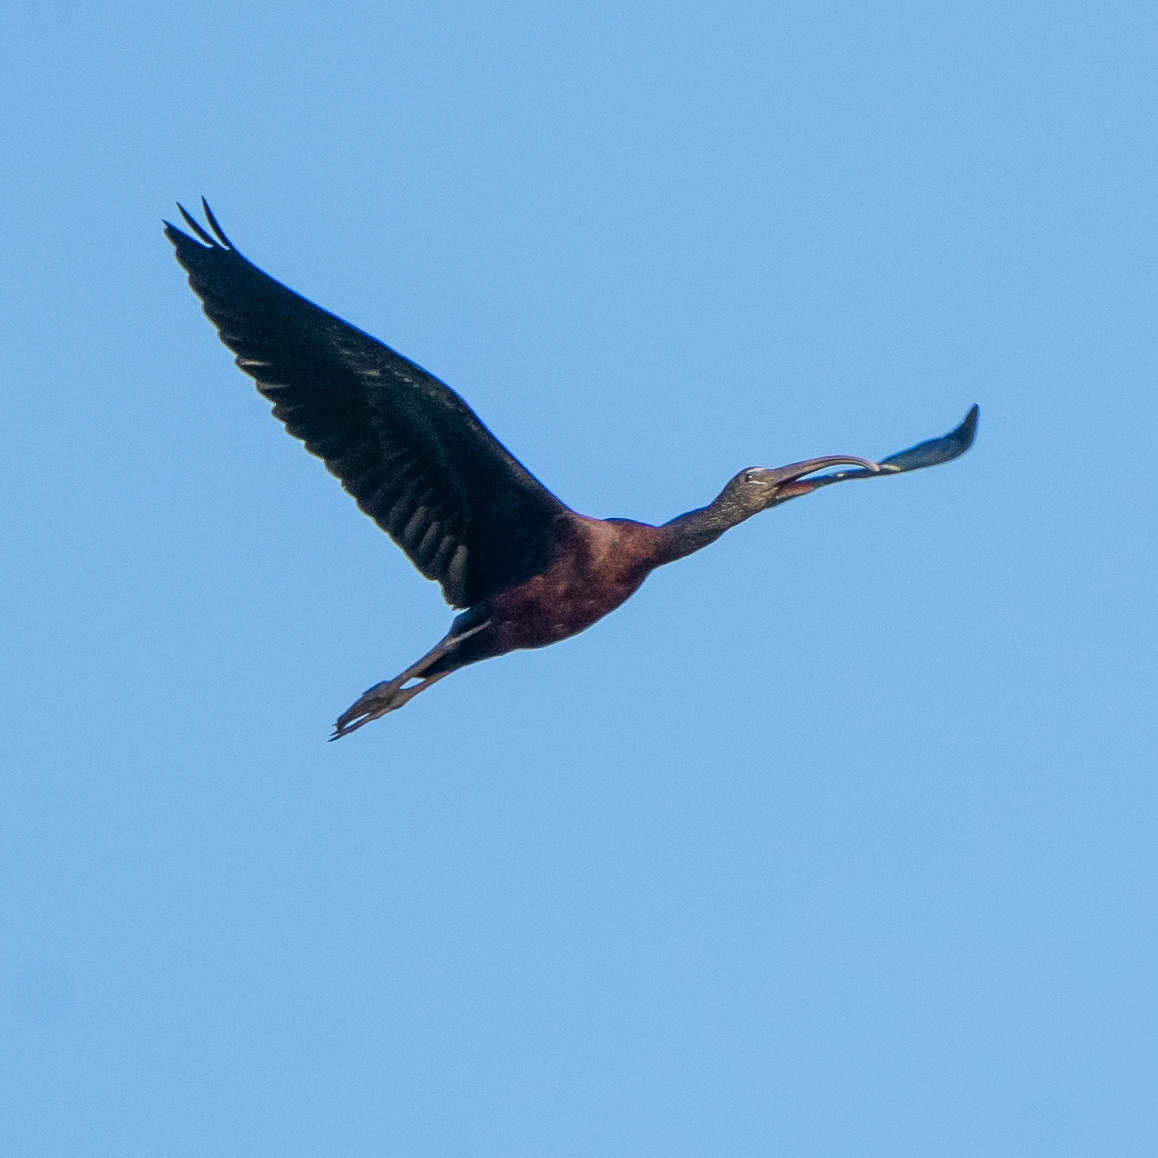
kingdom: Animalia
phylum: Chordata
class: Aves
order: Pelecaniformes
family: Threskiornithidae
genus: Plegadis
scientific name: Plegadis falcinellus
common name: Glossy ibis
